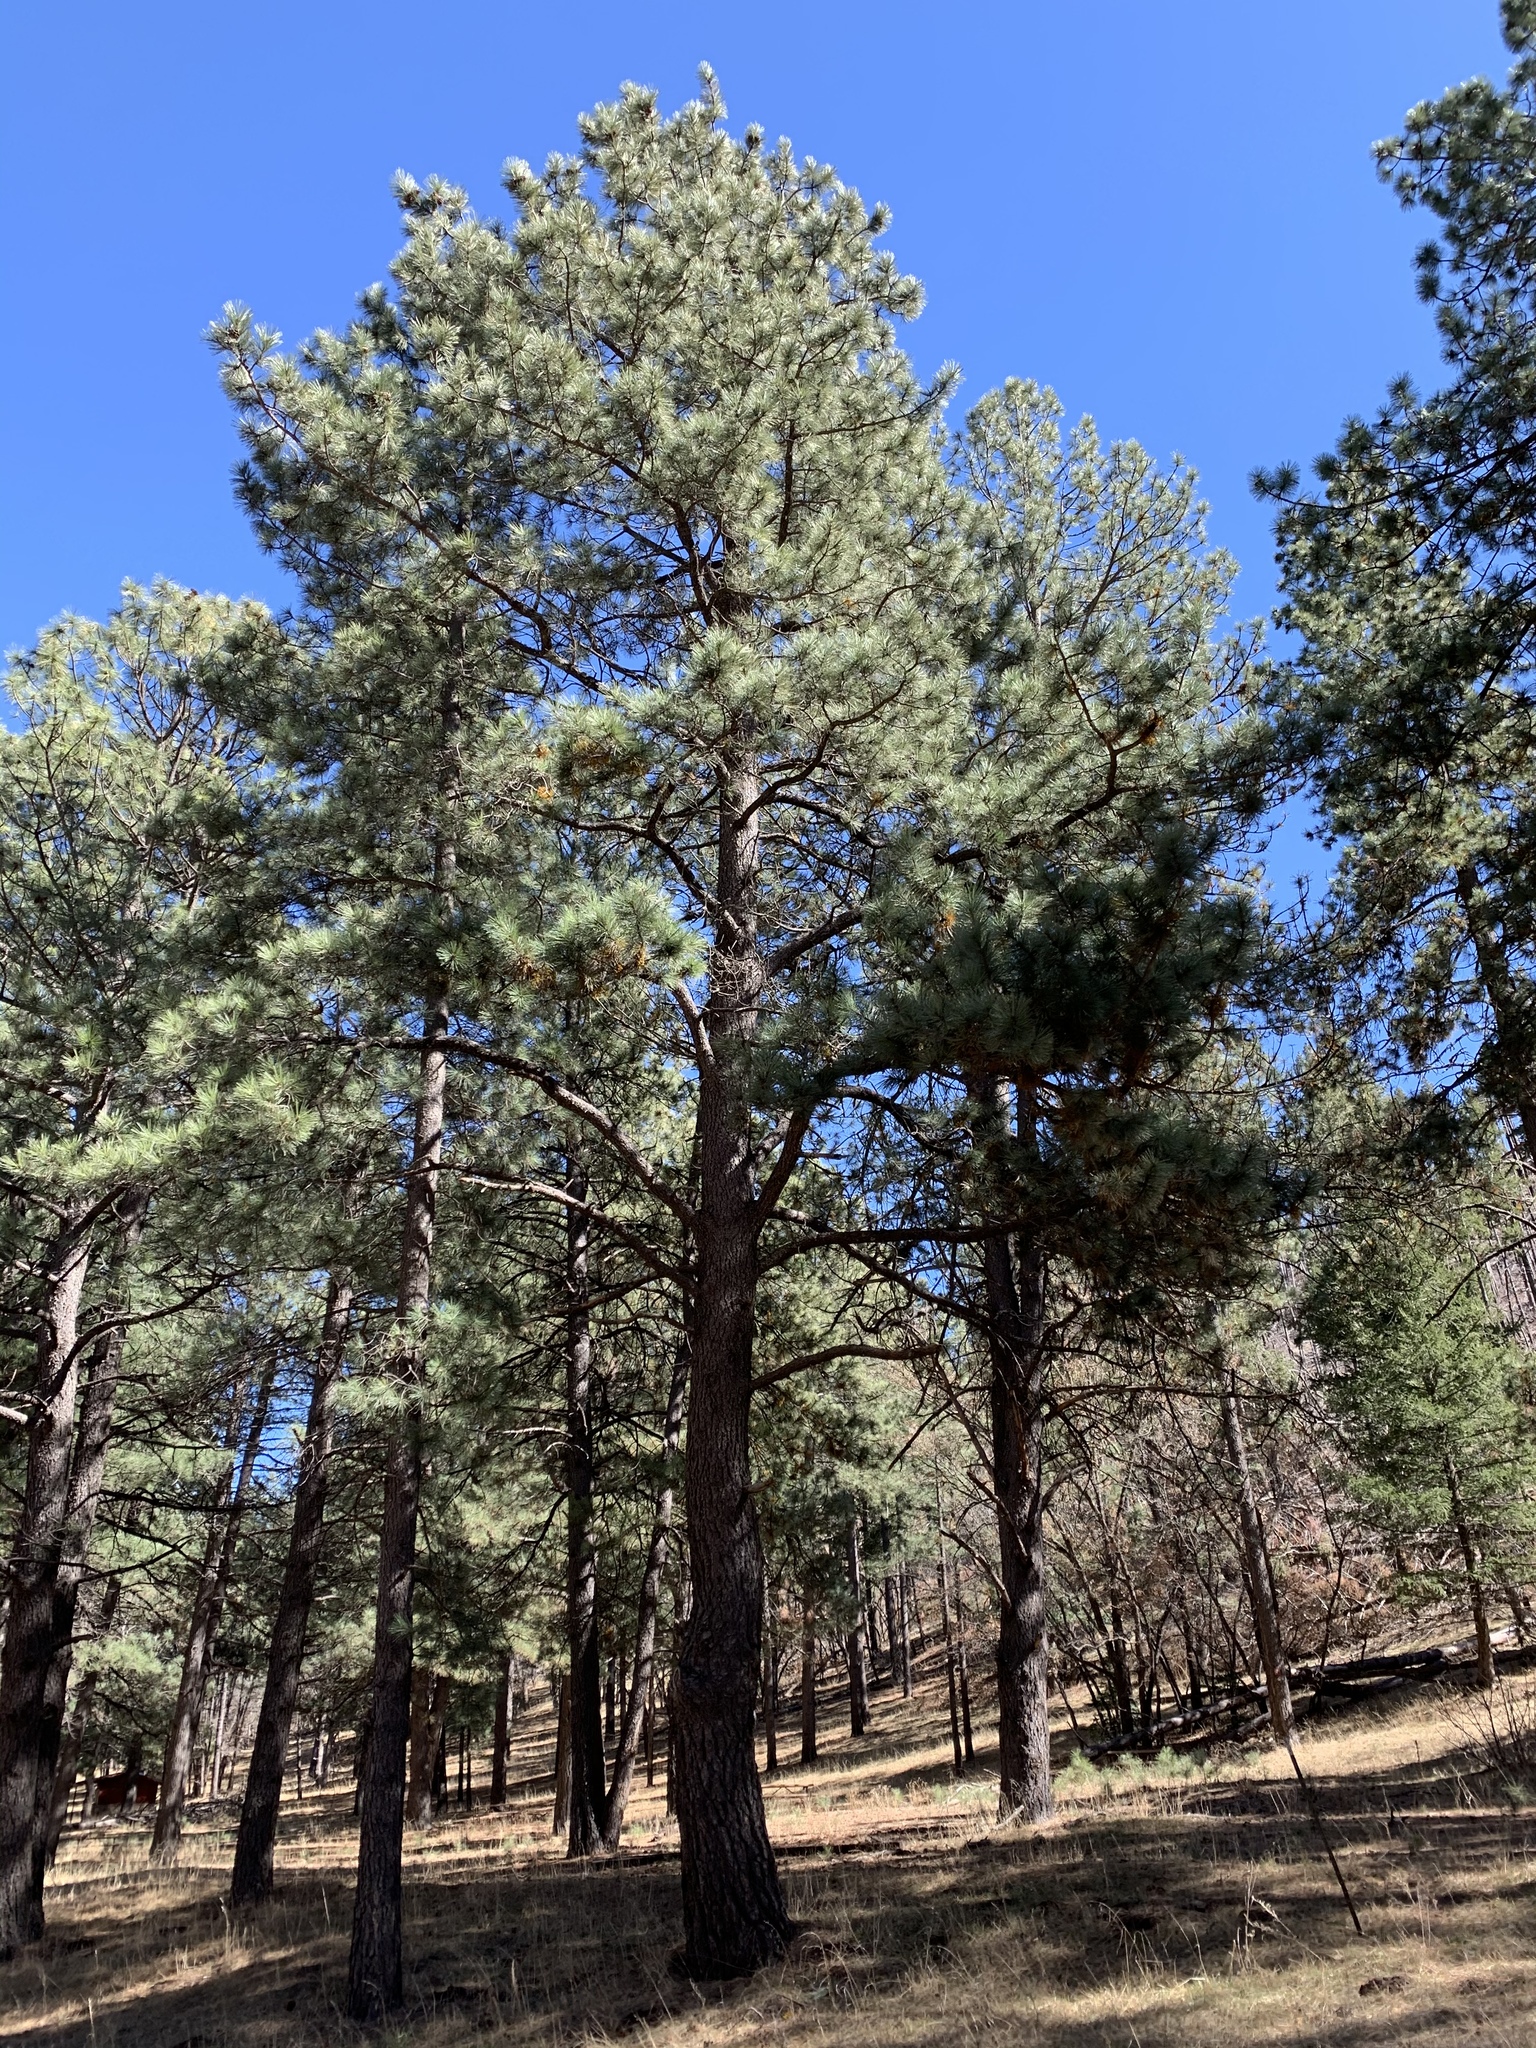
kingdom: Plantae
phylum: Tracheophyta
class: Pinopsida
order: Pinales
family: Pinaceae
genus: Pinus
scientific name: Pinus ponderosa
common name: Western yellow-pine
